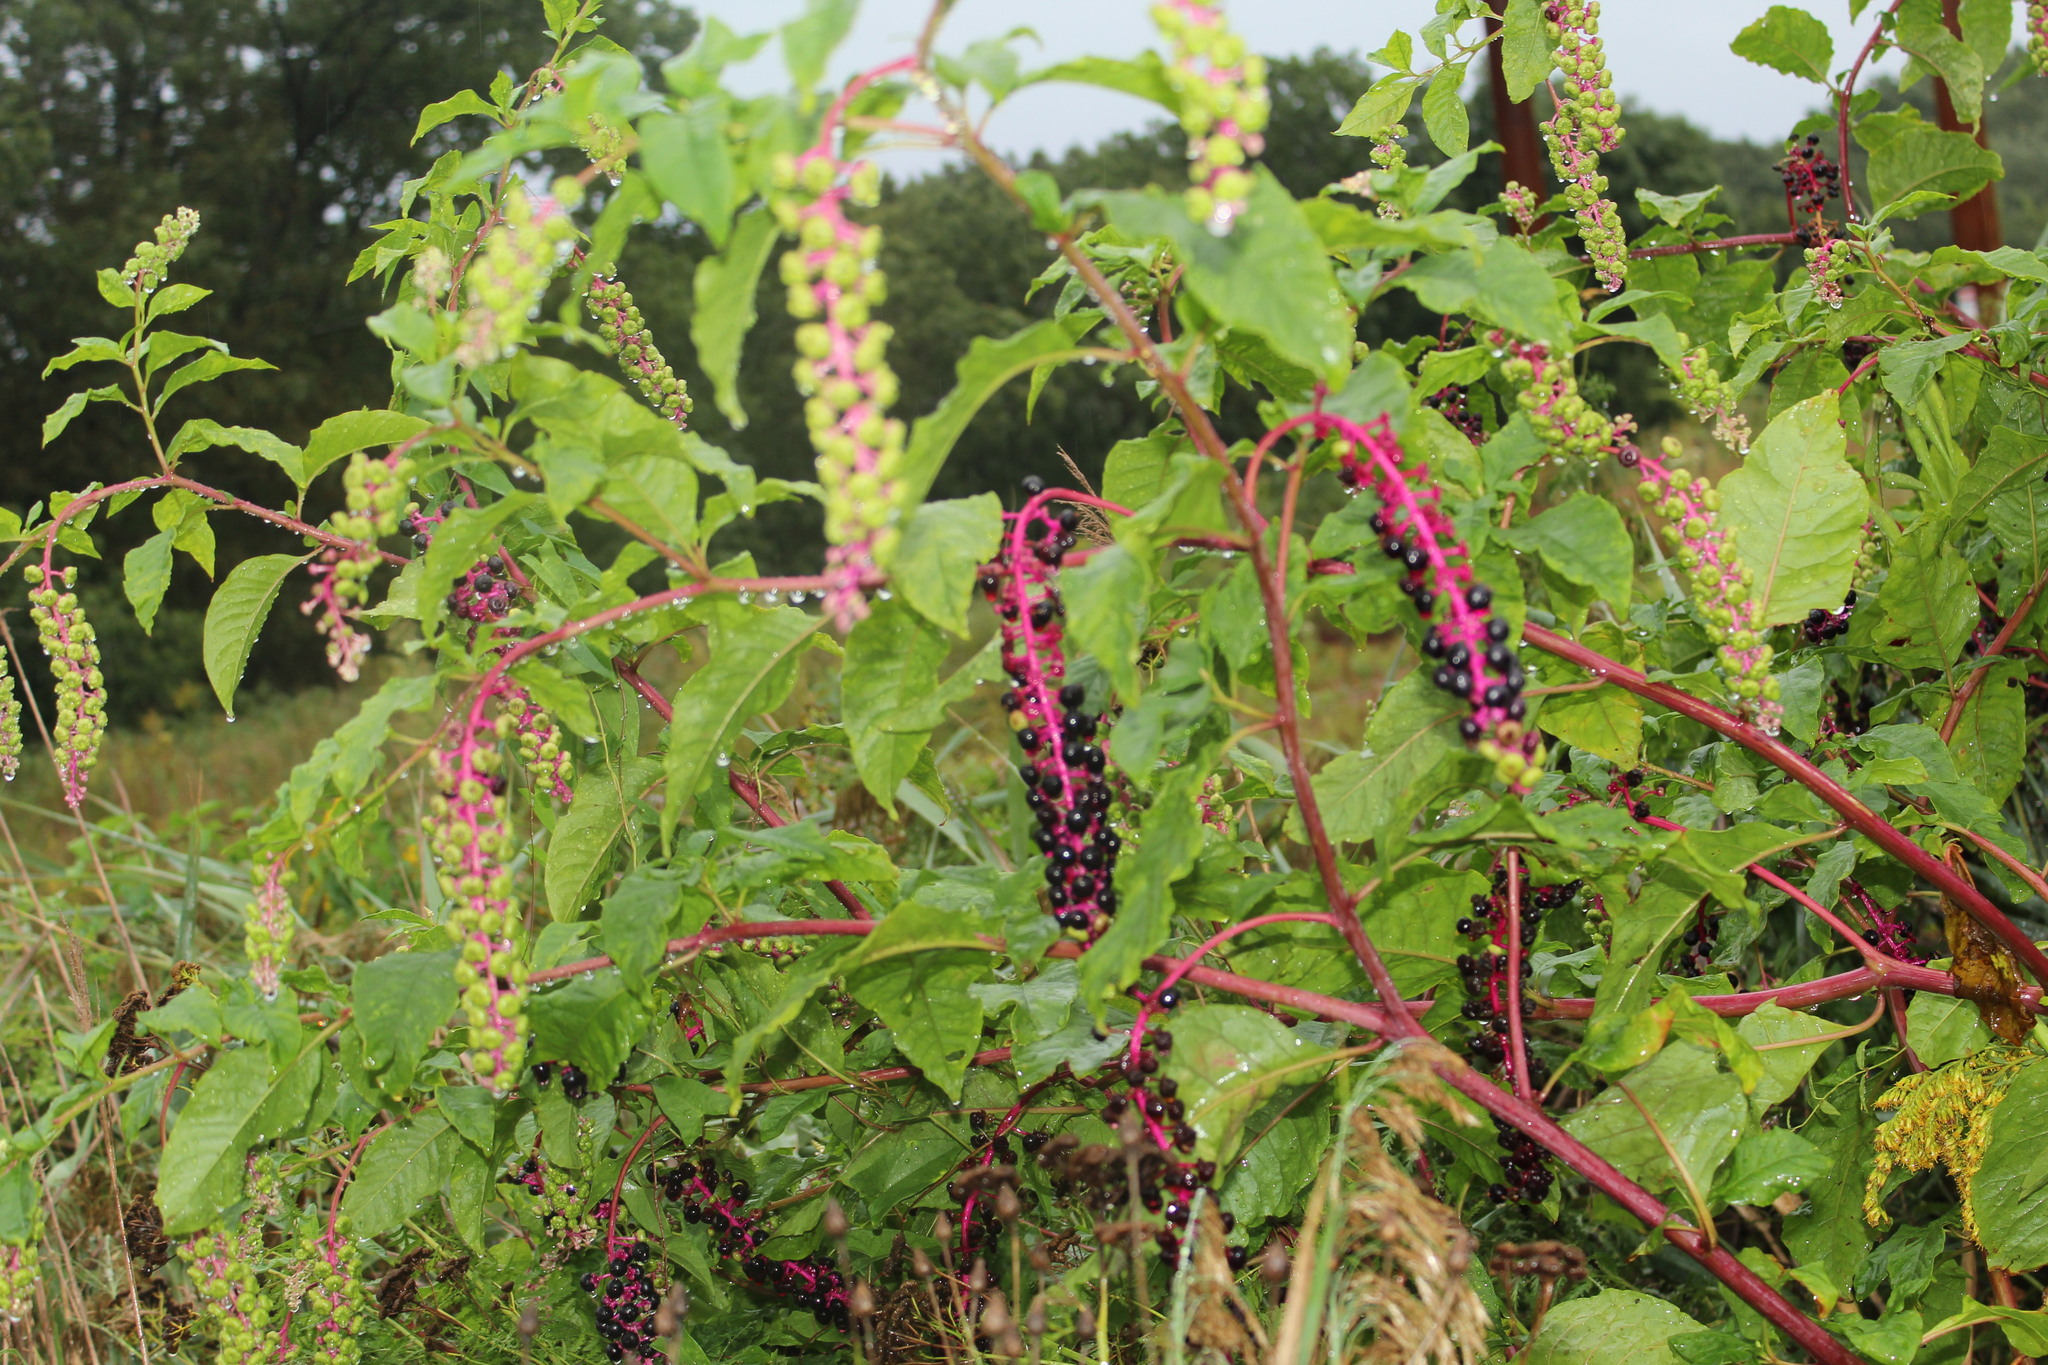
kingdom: Plantae
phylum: Tracheophyta
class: Magnoliopsida
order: Caryophyllales
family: Phytolaccaceae
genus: Phytolacca
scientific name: Phytolacca americana
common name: American pokeweed
